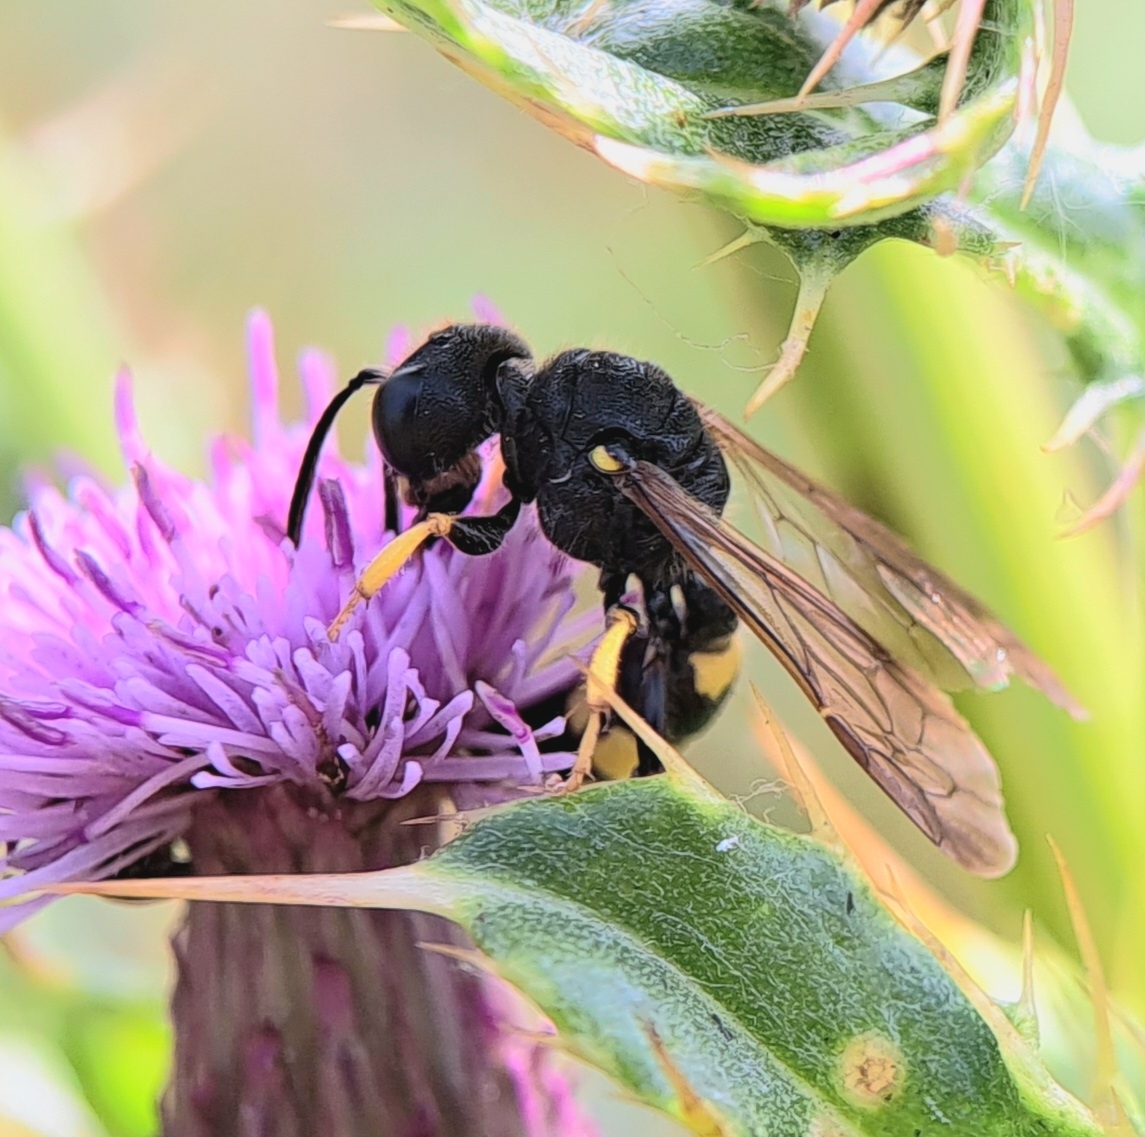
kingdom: Animalia
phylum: Arthropoda
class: Insecta
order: Hymenoptera
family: Crabronidae
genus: Cerceris
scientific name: Cerceris rybyensis
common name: Ornate tailed digger wasp
